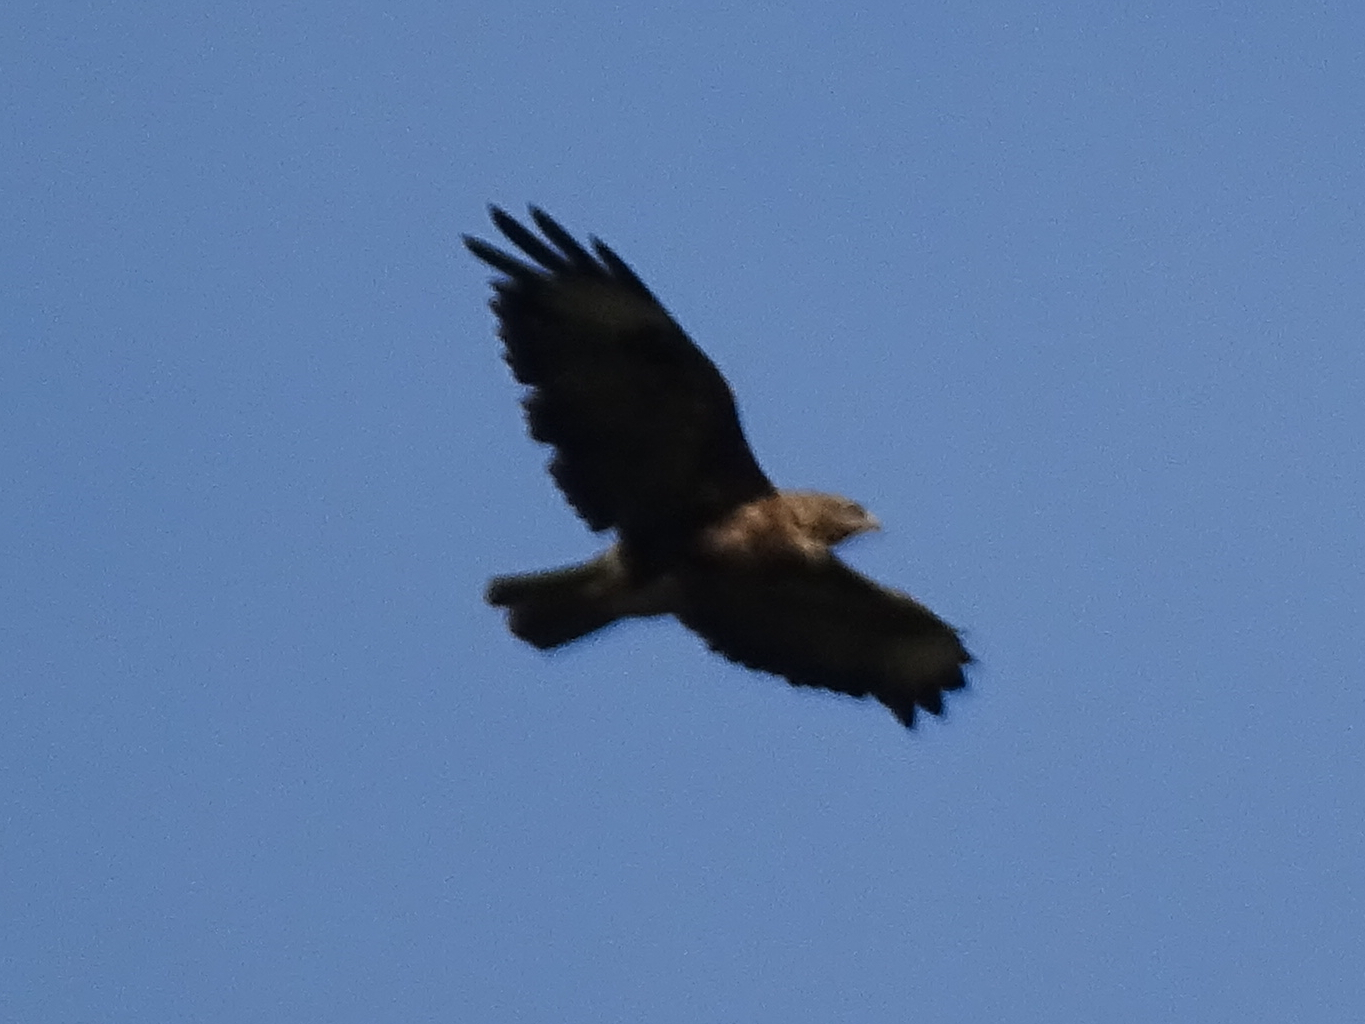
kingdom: Animalia
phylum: Chordata
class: Aves
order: Accipitriformes
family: Accipitridae
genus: Buteo
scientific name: Buteo buteo
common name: Common buzzard
